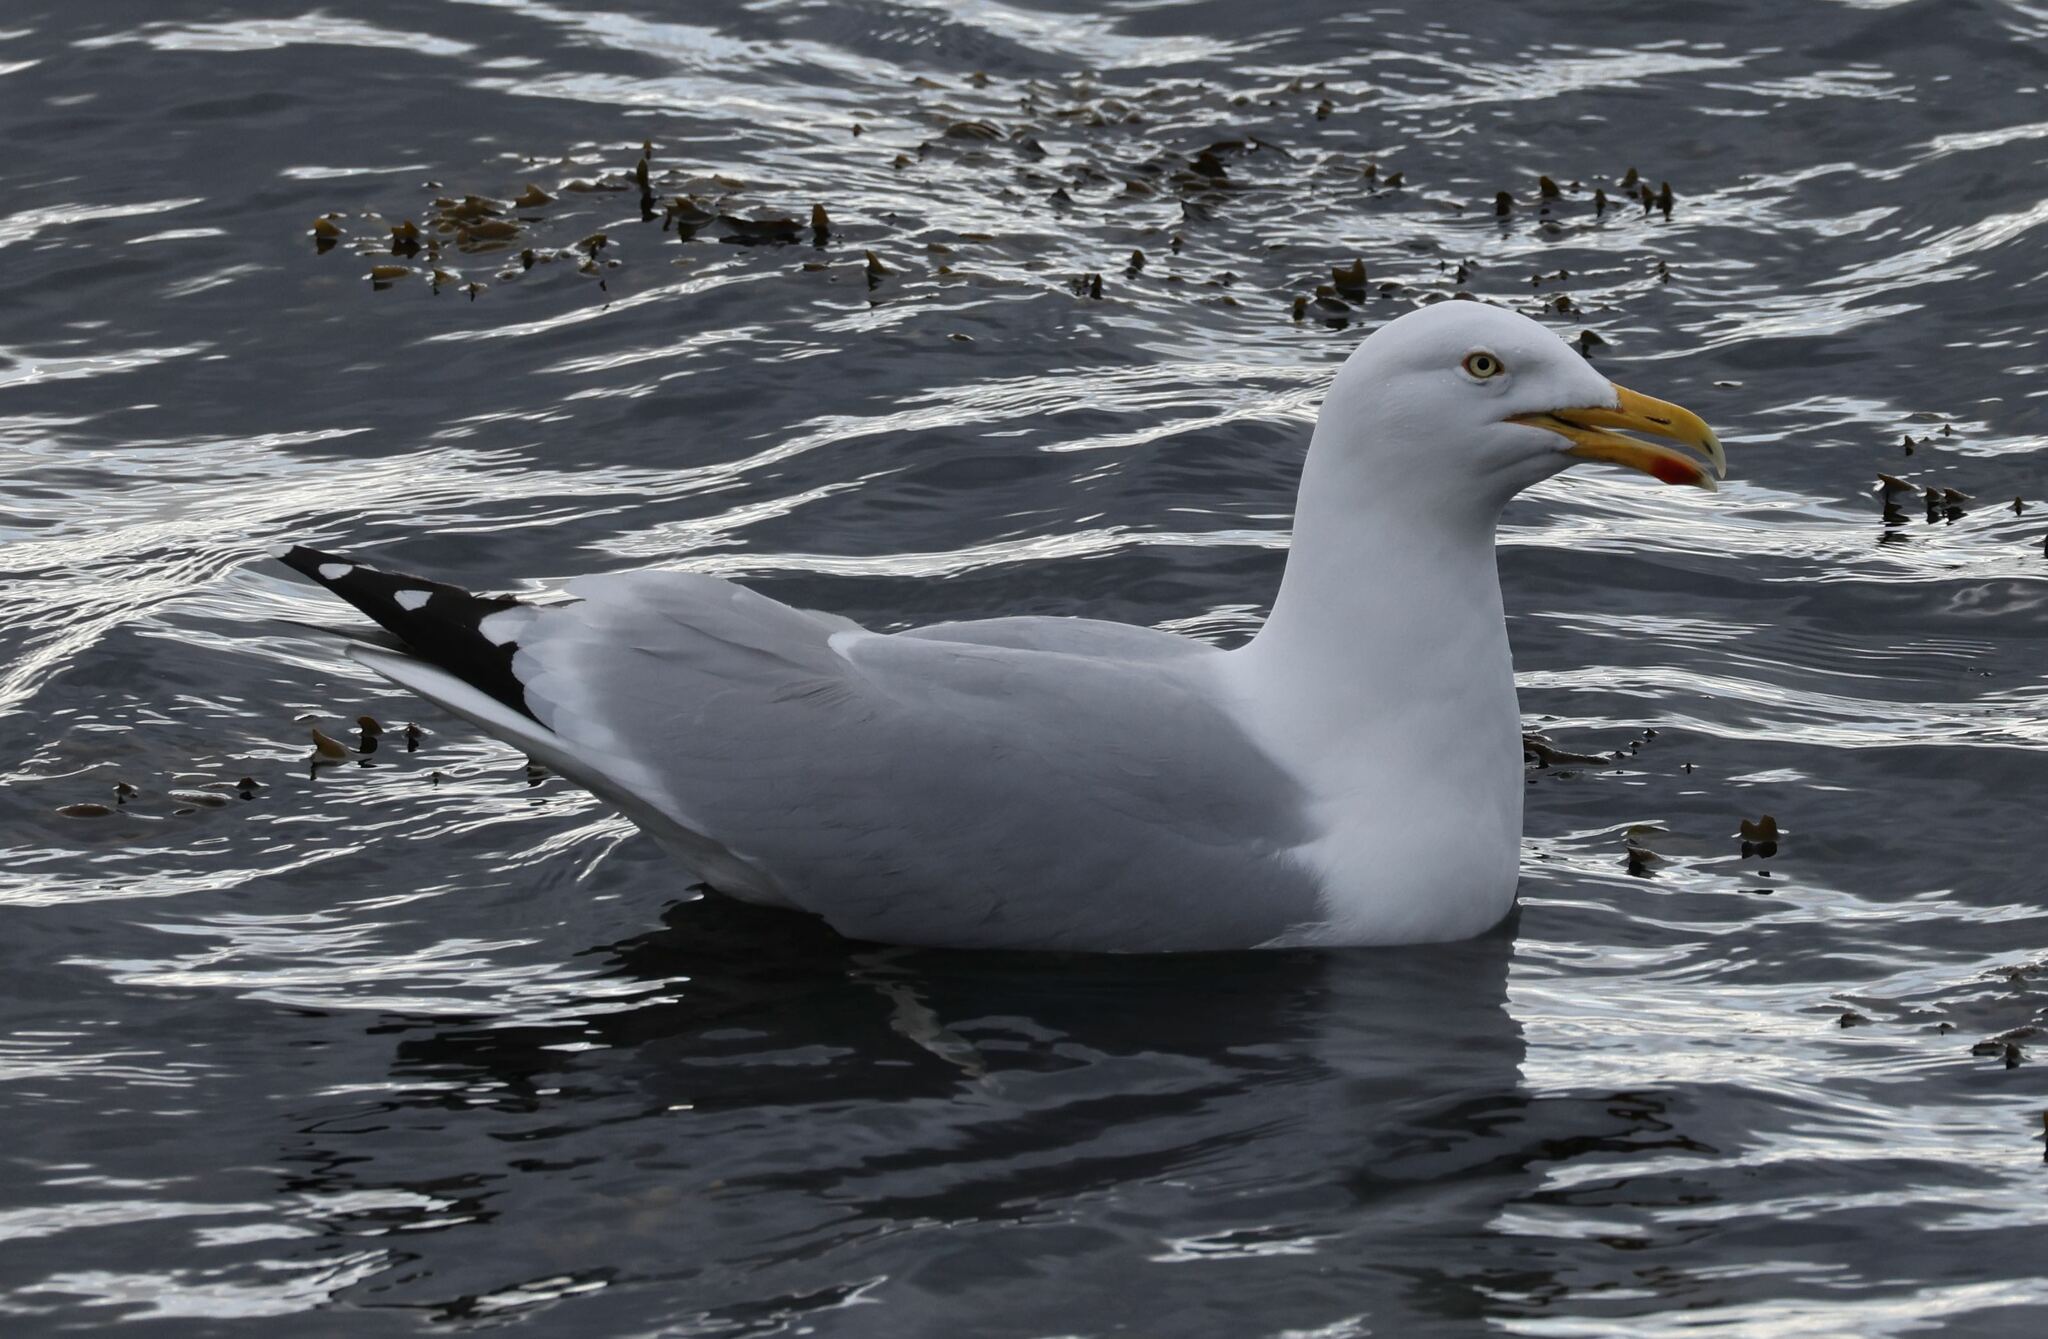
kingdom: Animalia
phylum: Chordata
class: Aves
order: Charadriiformes
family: Laridae
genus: Larus
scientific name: Larus argentatus
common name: Herring gull
